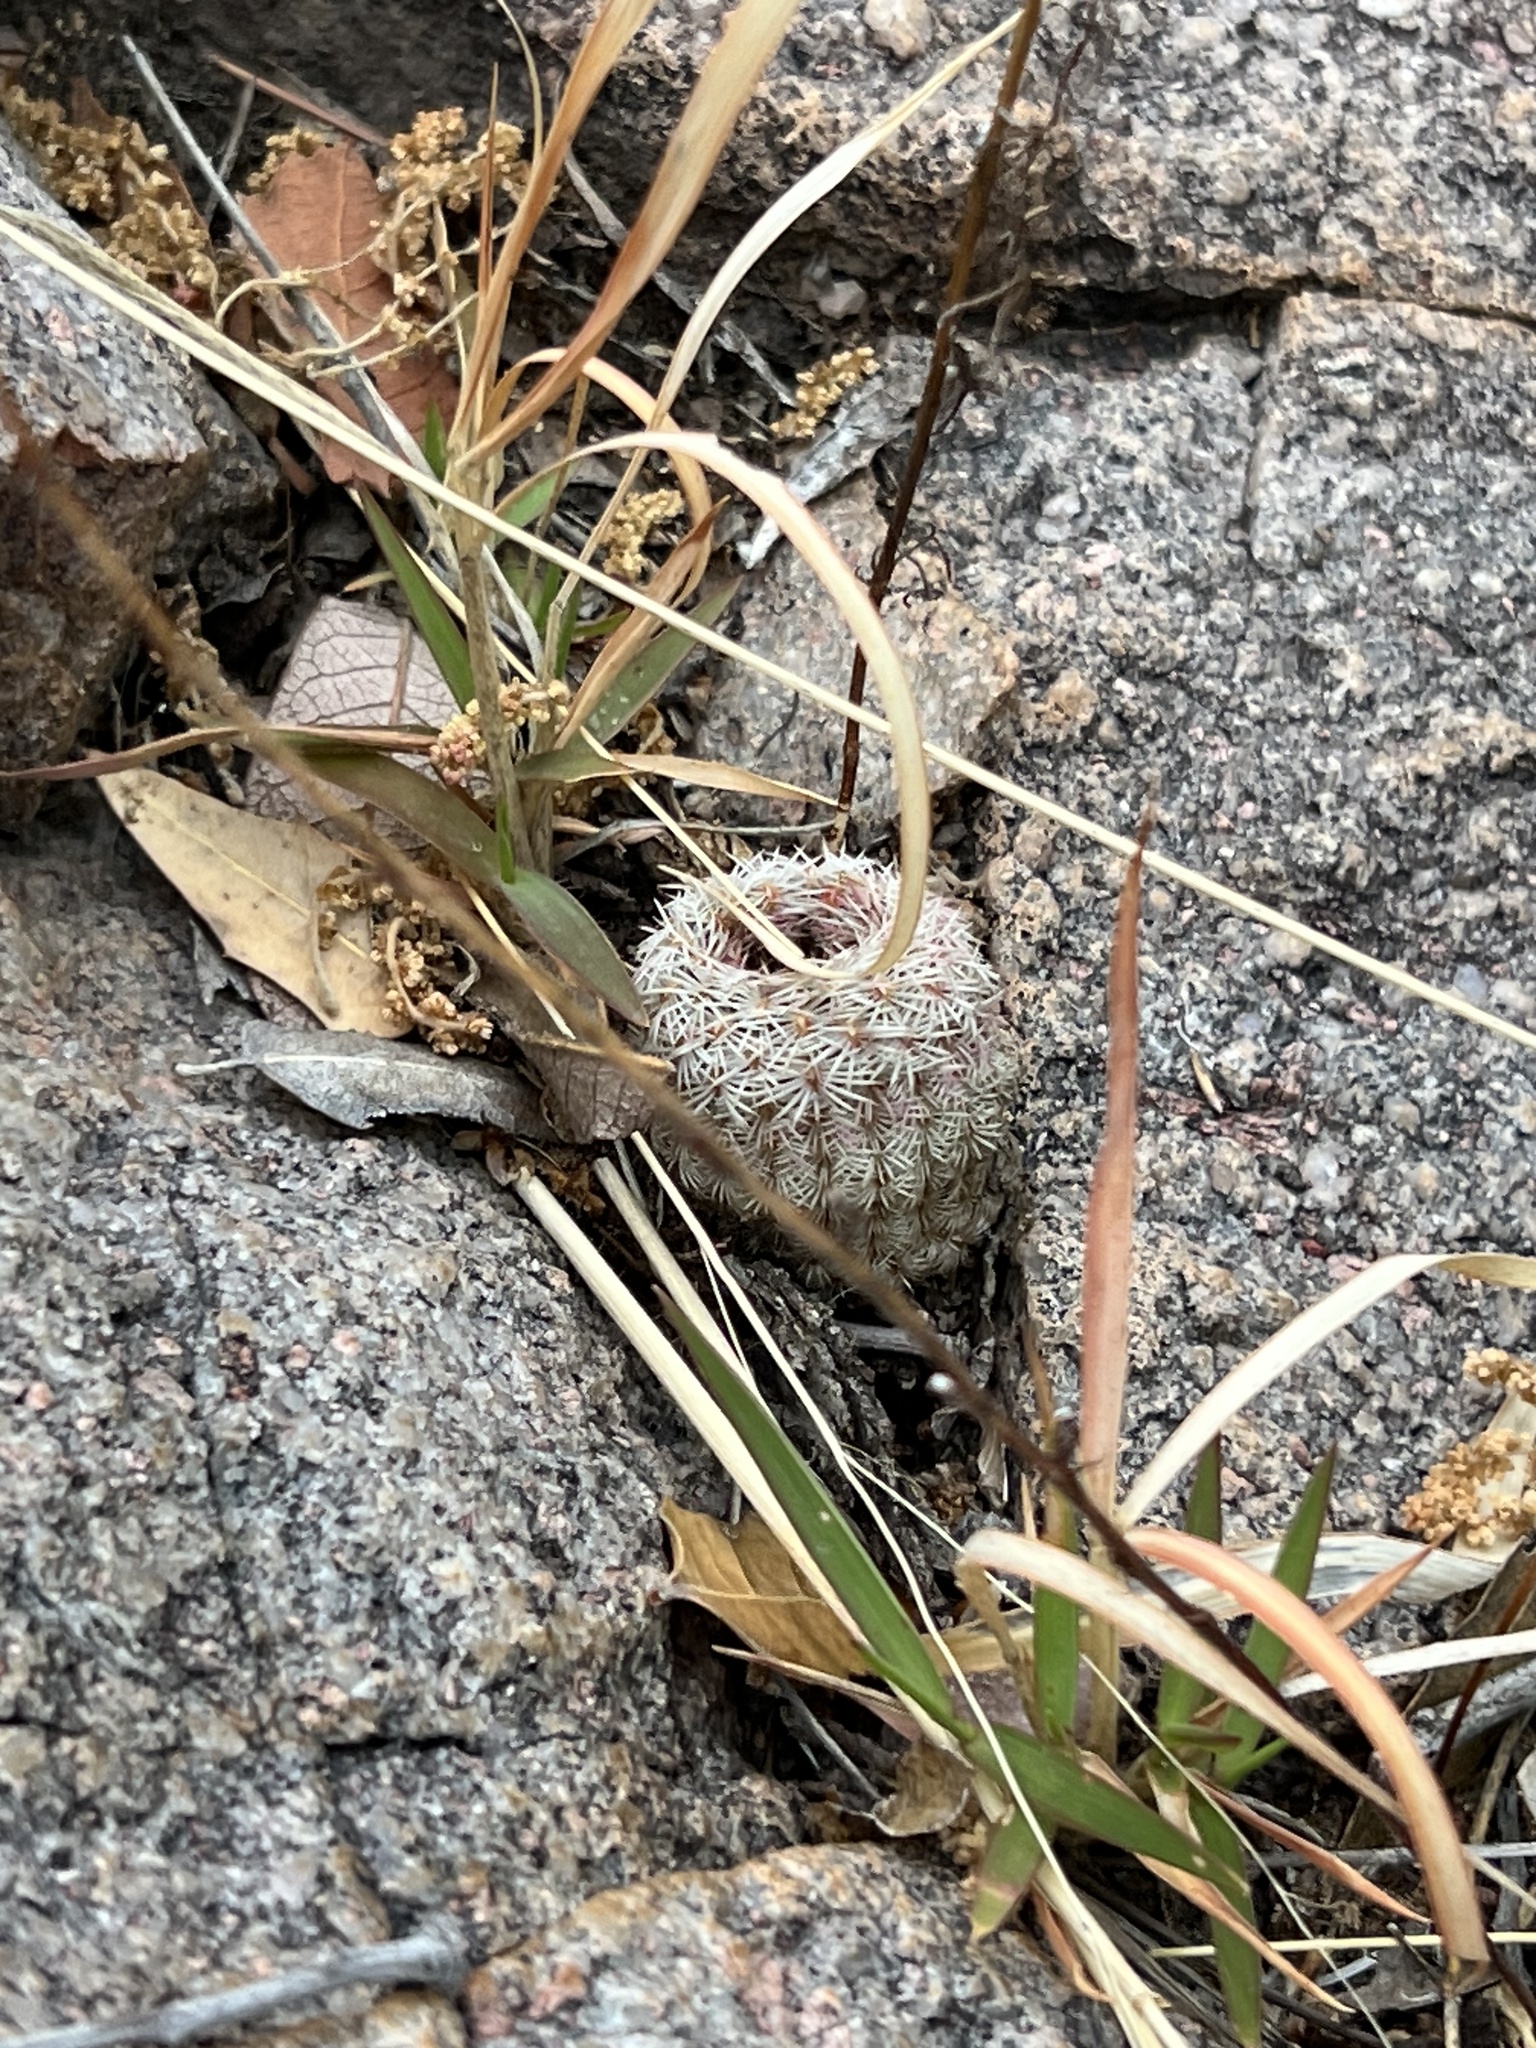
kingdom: Plantae
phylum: Tracheophyta
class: Magnoliopsida
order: Caryophyllales
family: Cactaceae
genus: Echinocereus
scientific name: Echinocereus rigidissimus
